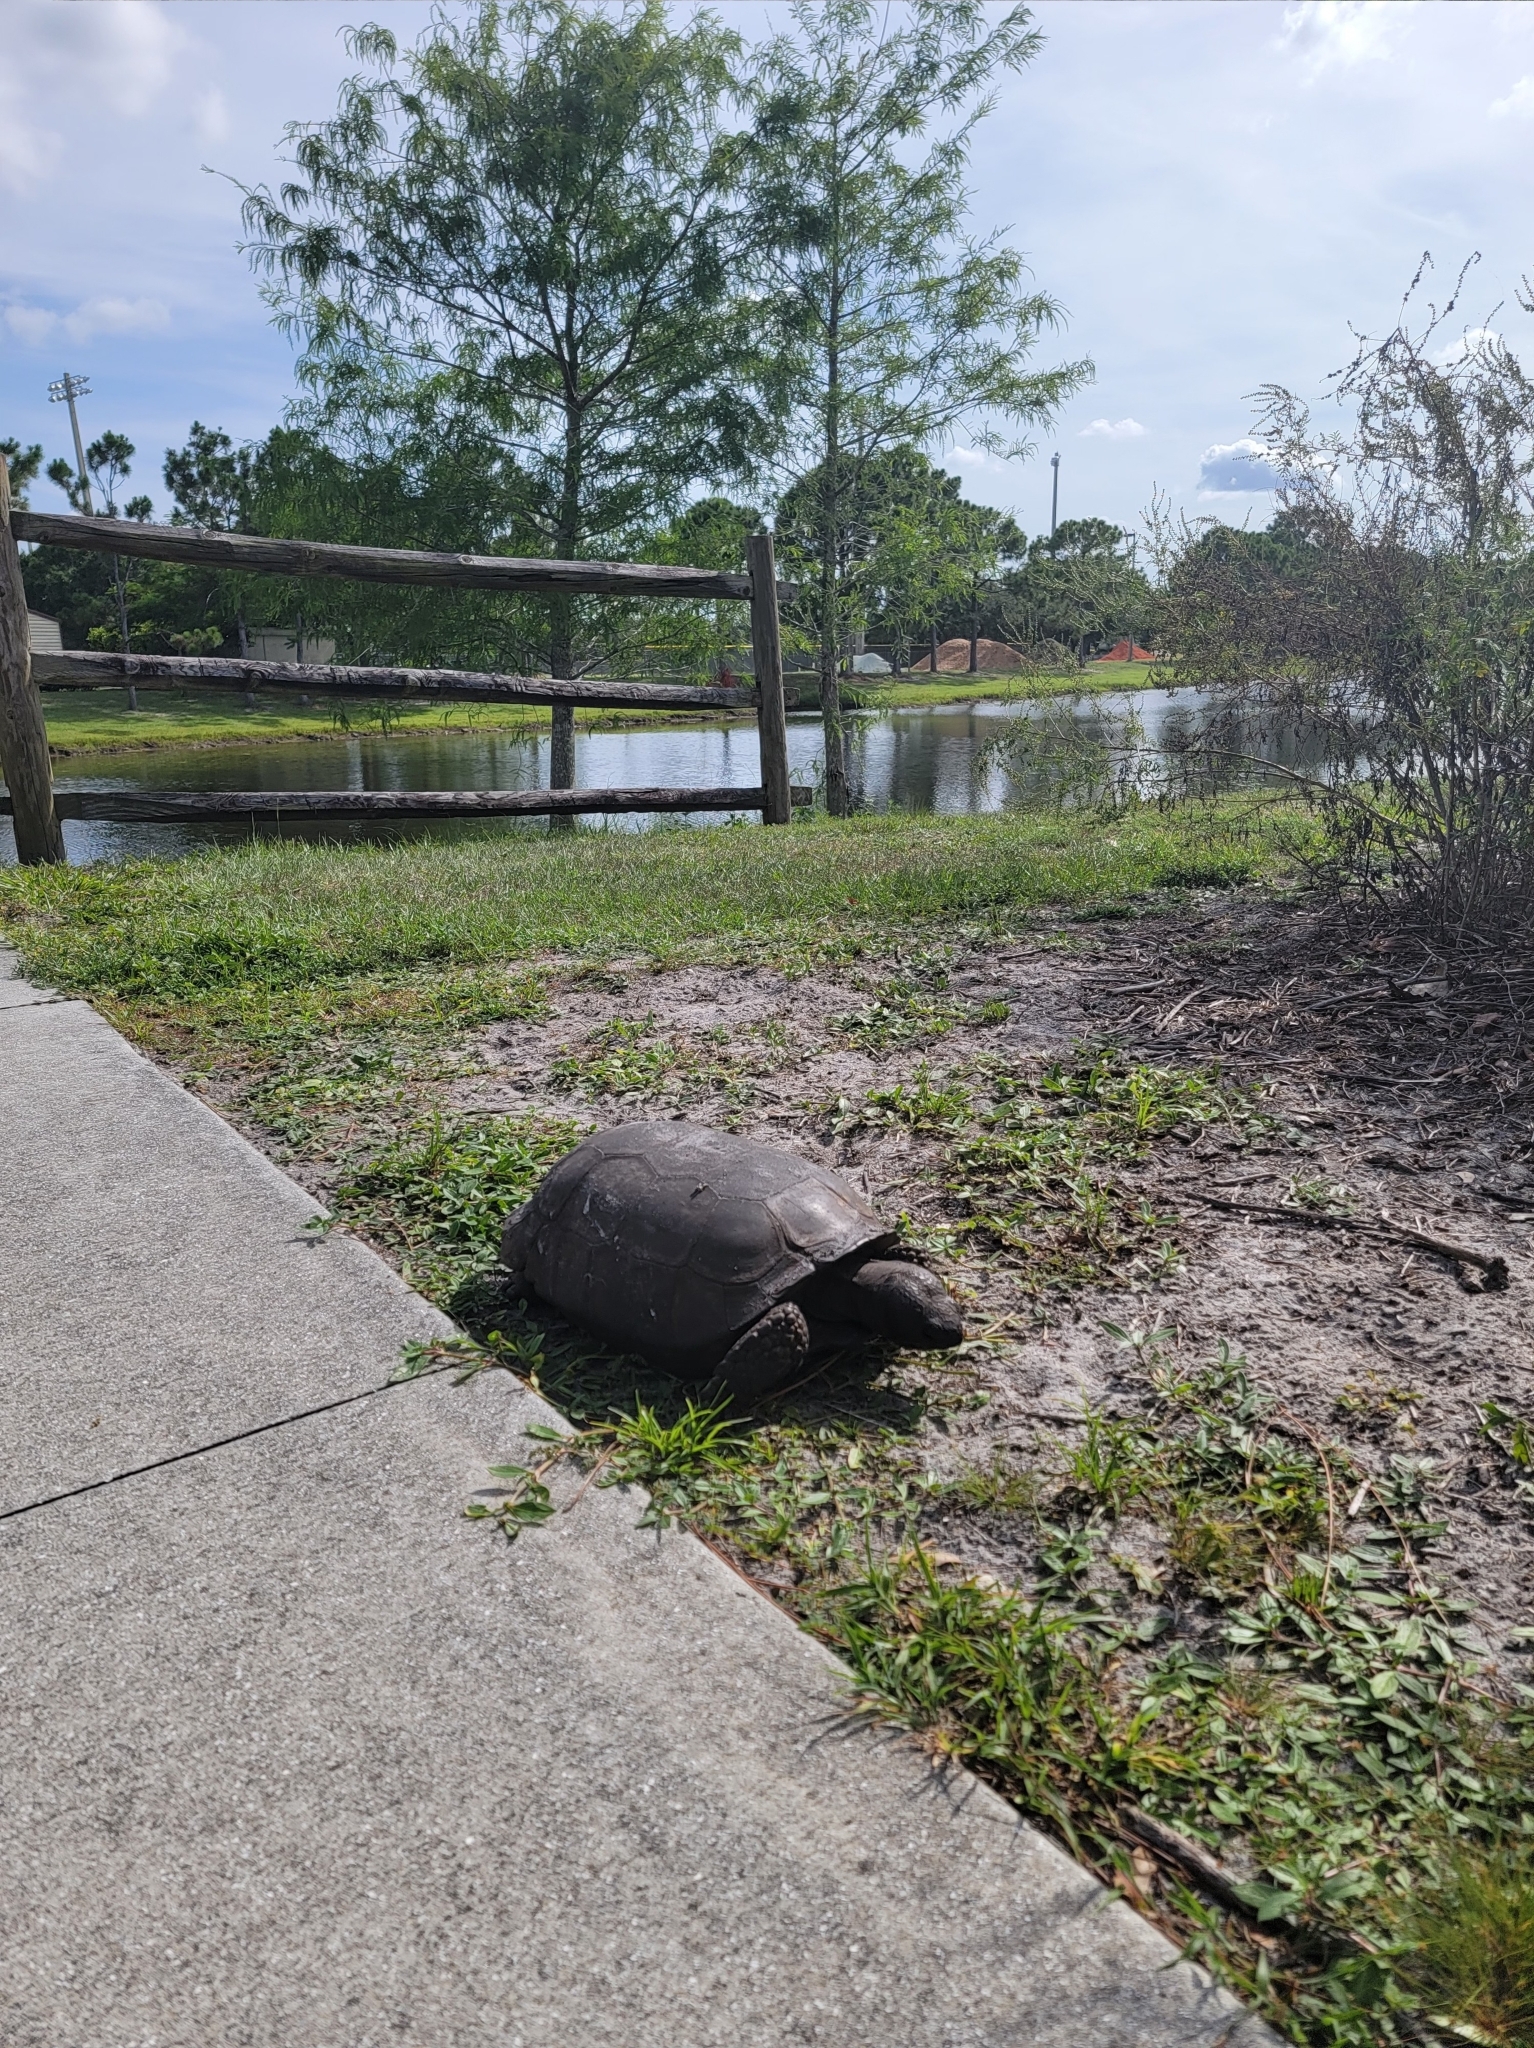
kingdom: Animalia
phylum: Chordata
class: Testudines
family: Testudinidae
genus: Gopherus
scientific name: Gopherus polyphemus
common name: Florida gopher tortoise
